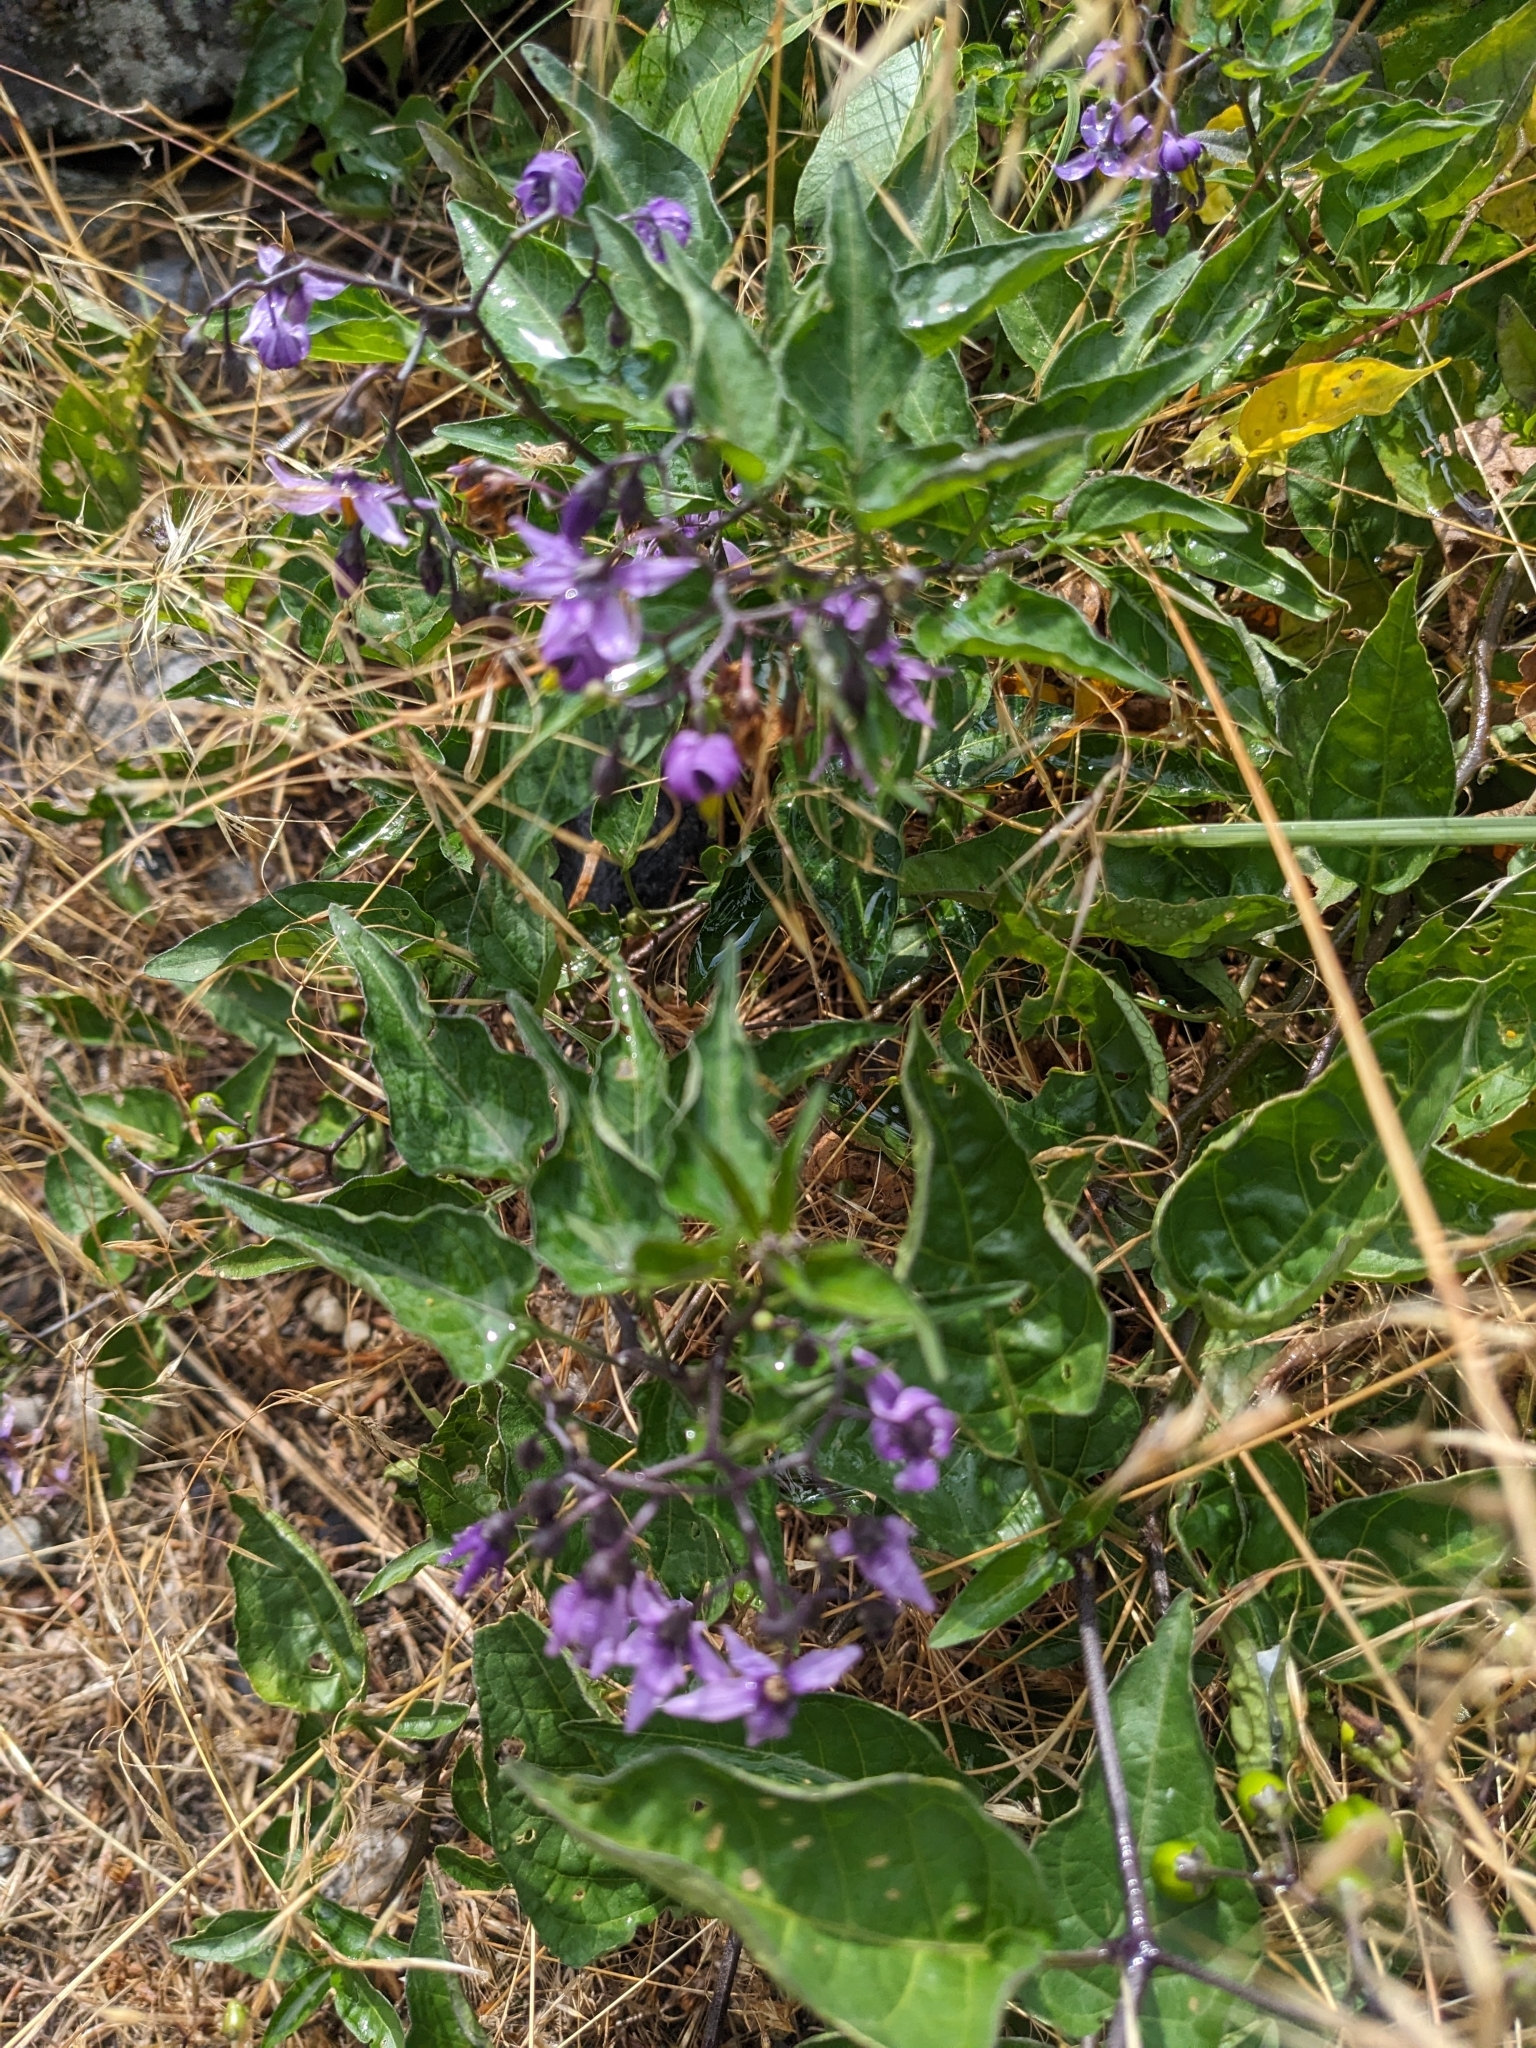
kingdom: Plantae
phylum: Tracheophyta
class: Magnoliopsida
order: Solanales
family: Solanaceae
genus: Solanum
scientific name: Solanum dulcamara
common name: Climbing nightshade
